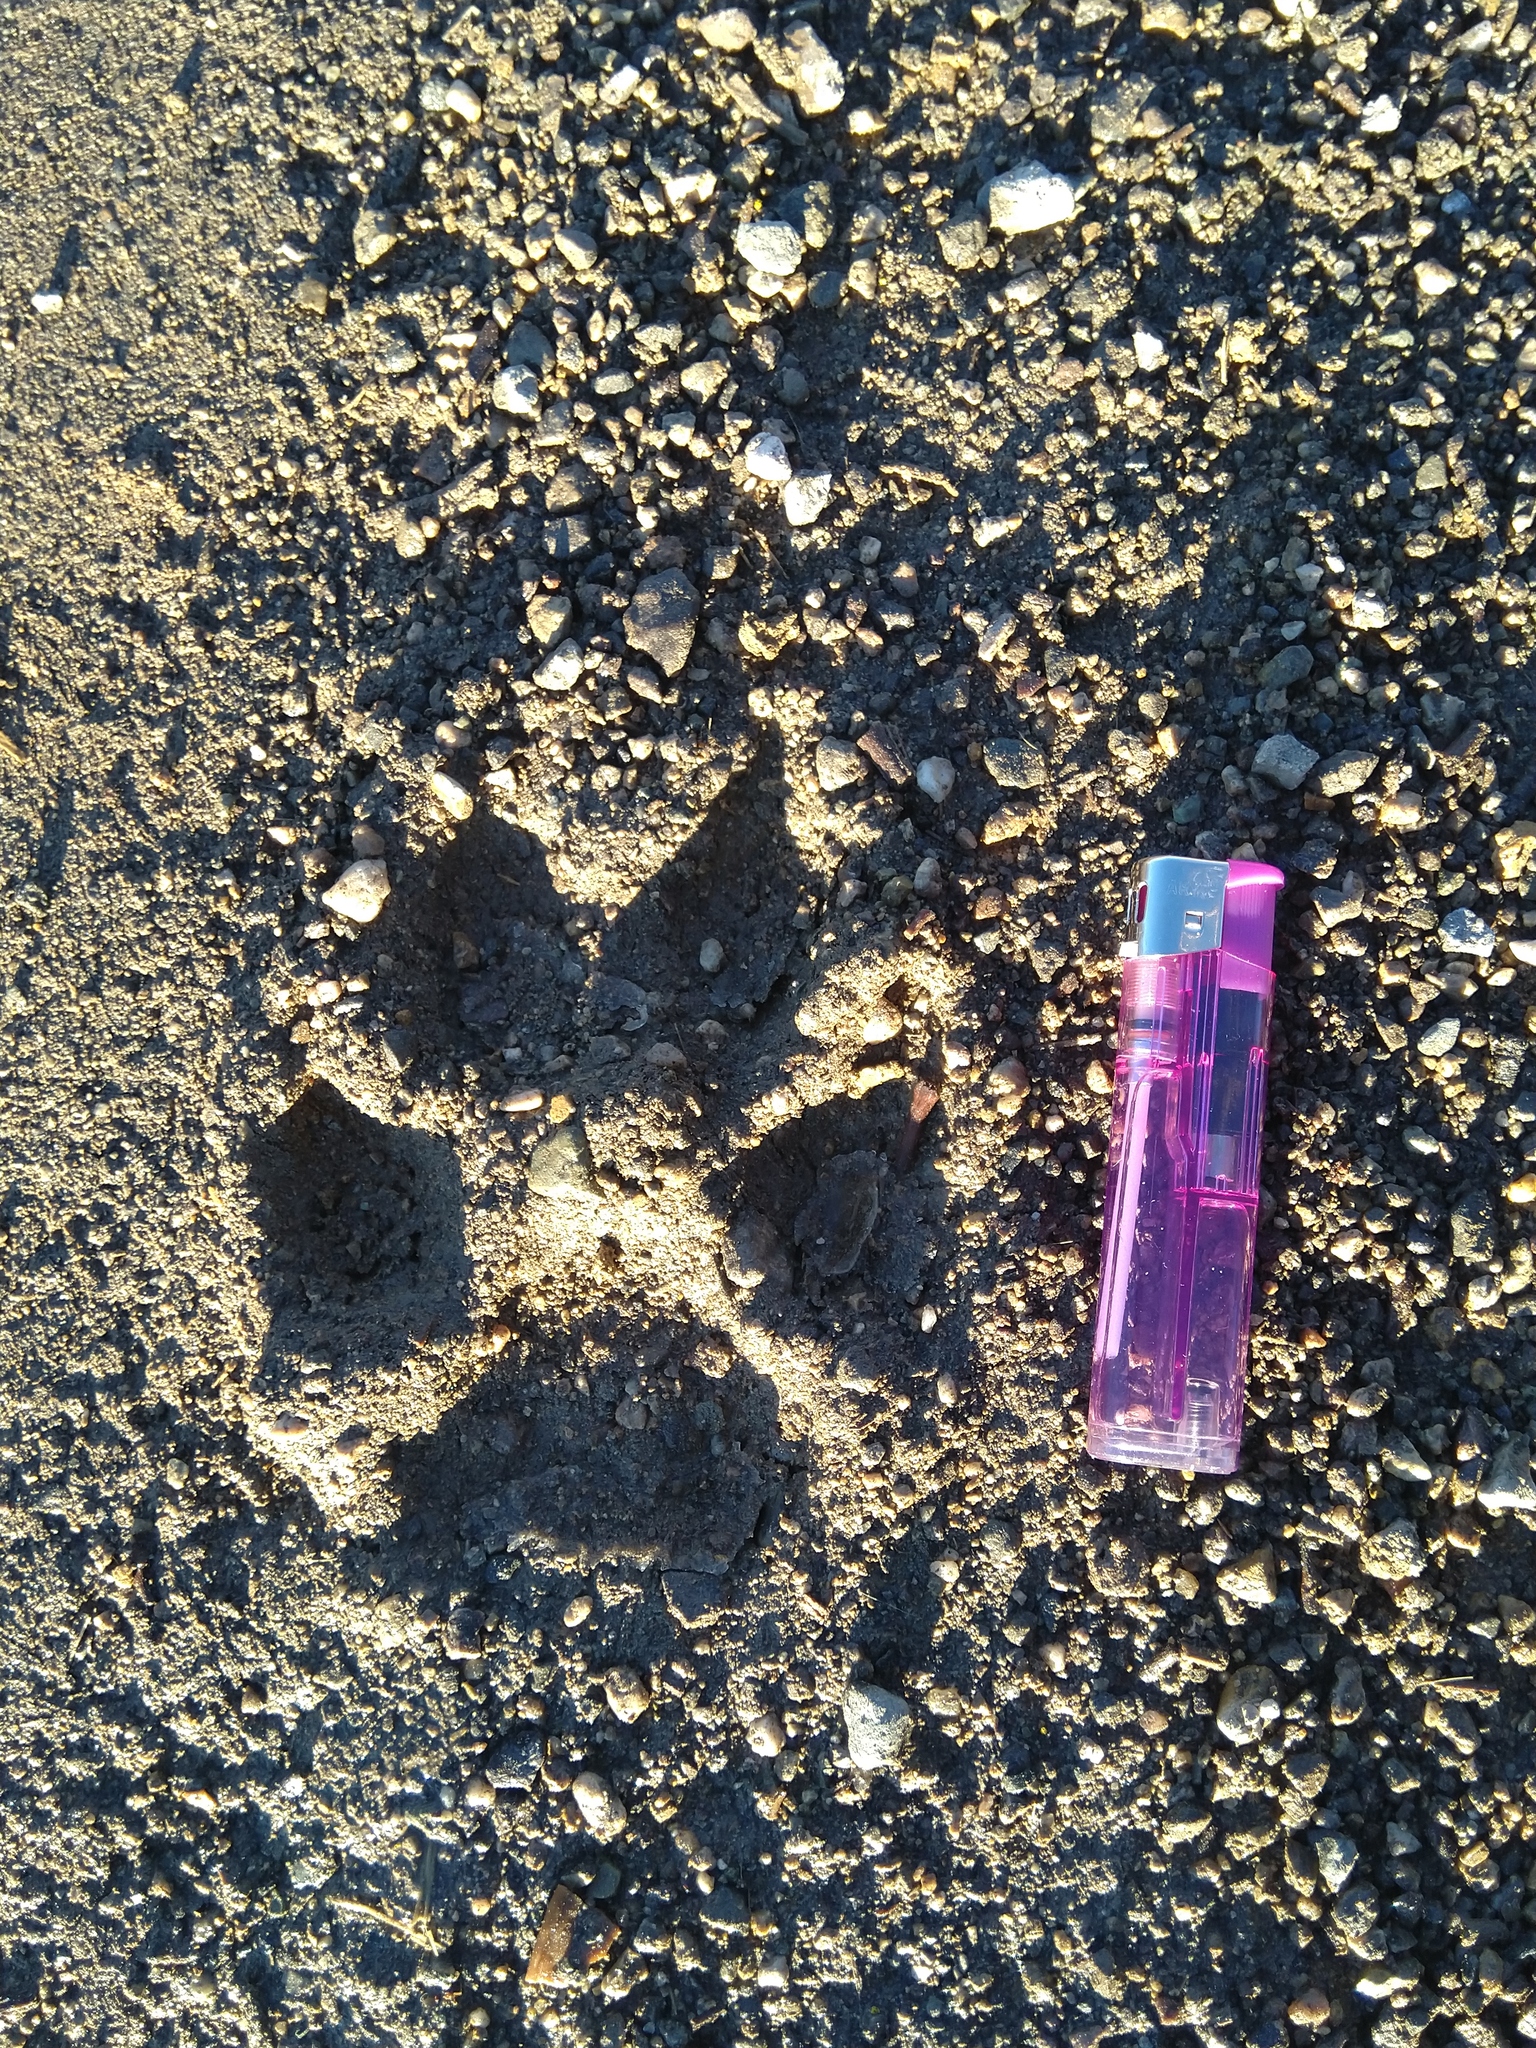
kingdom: Animalia
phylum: Chordata
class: Mammalia
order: Carnivora
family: Canidae
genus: Canis
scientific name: Canis lupus
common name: Gray wolf
